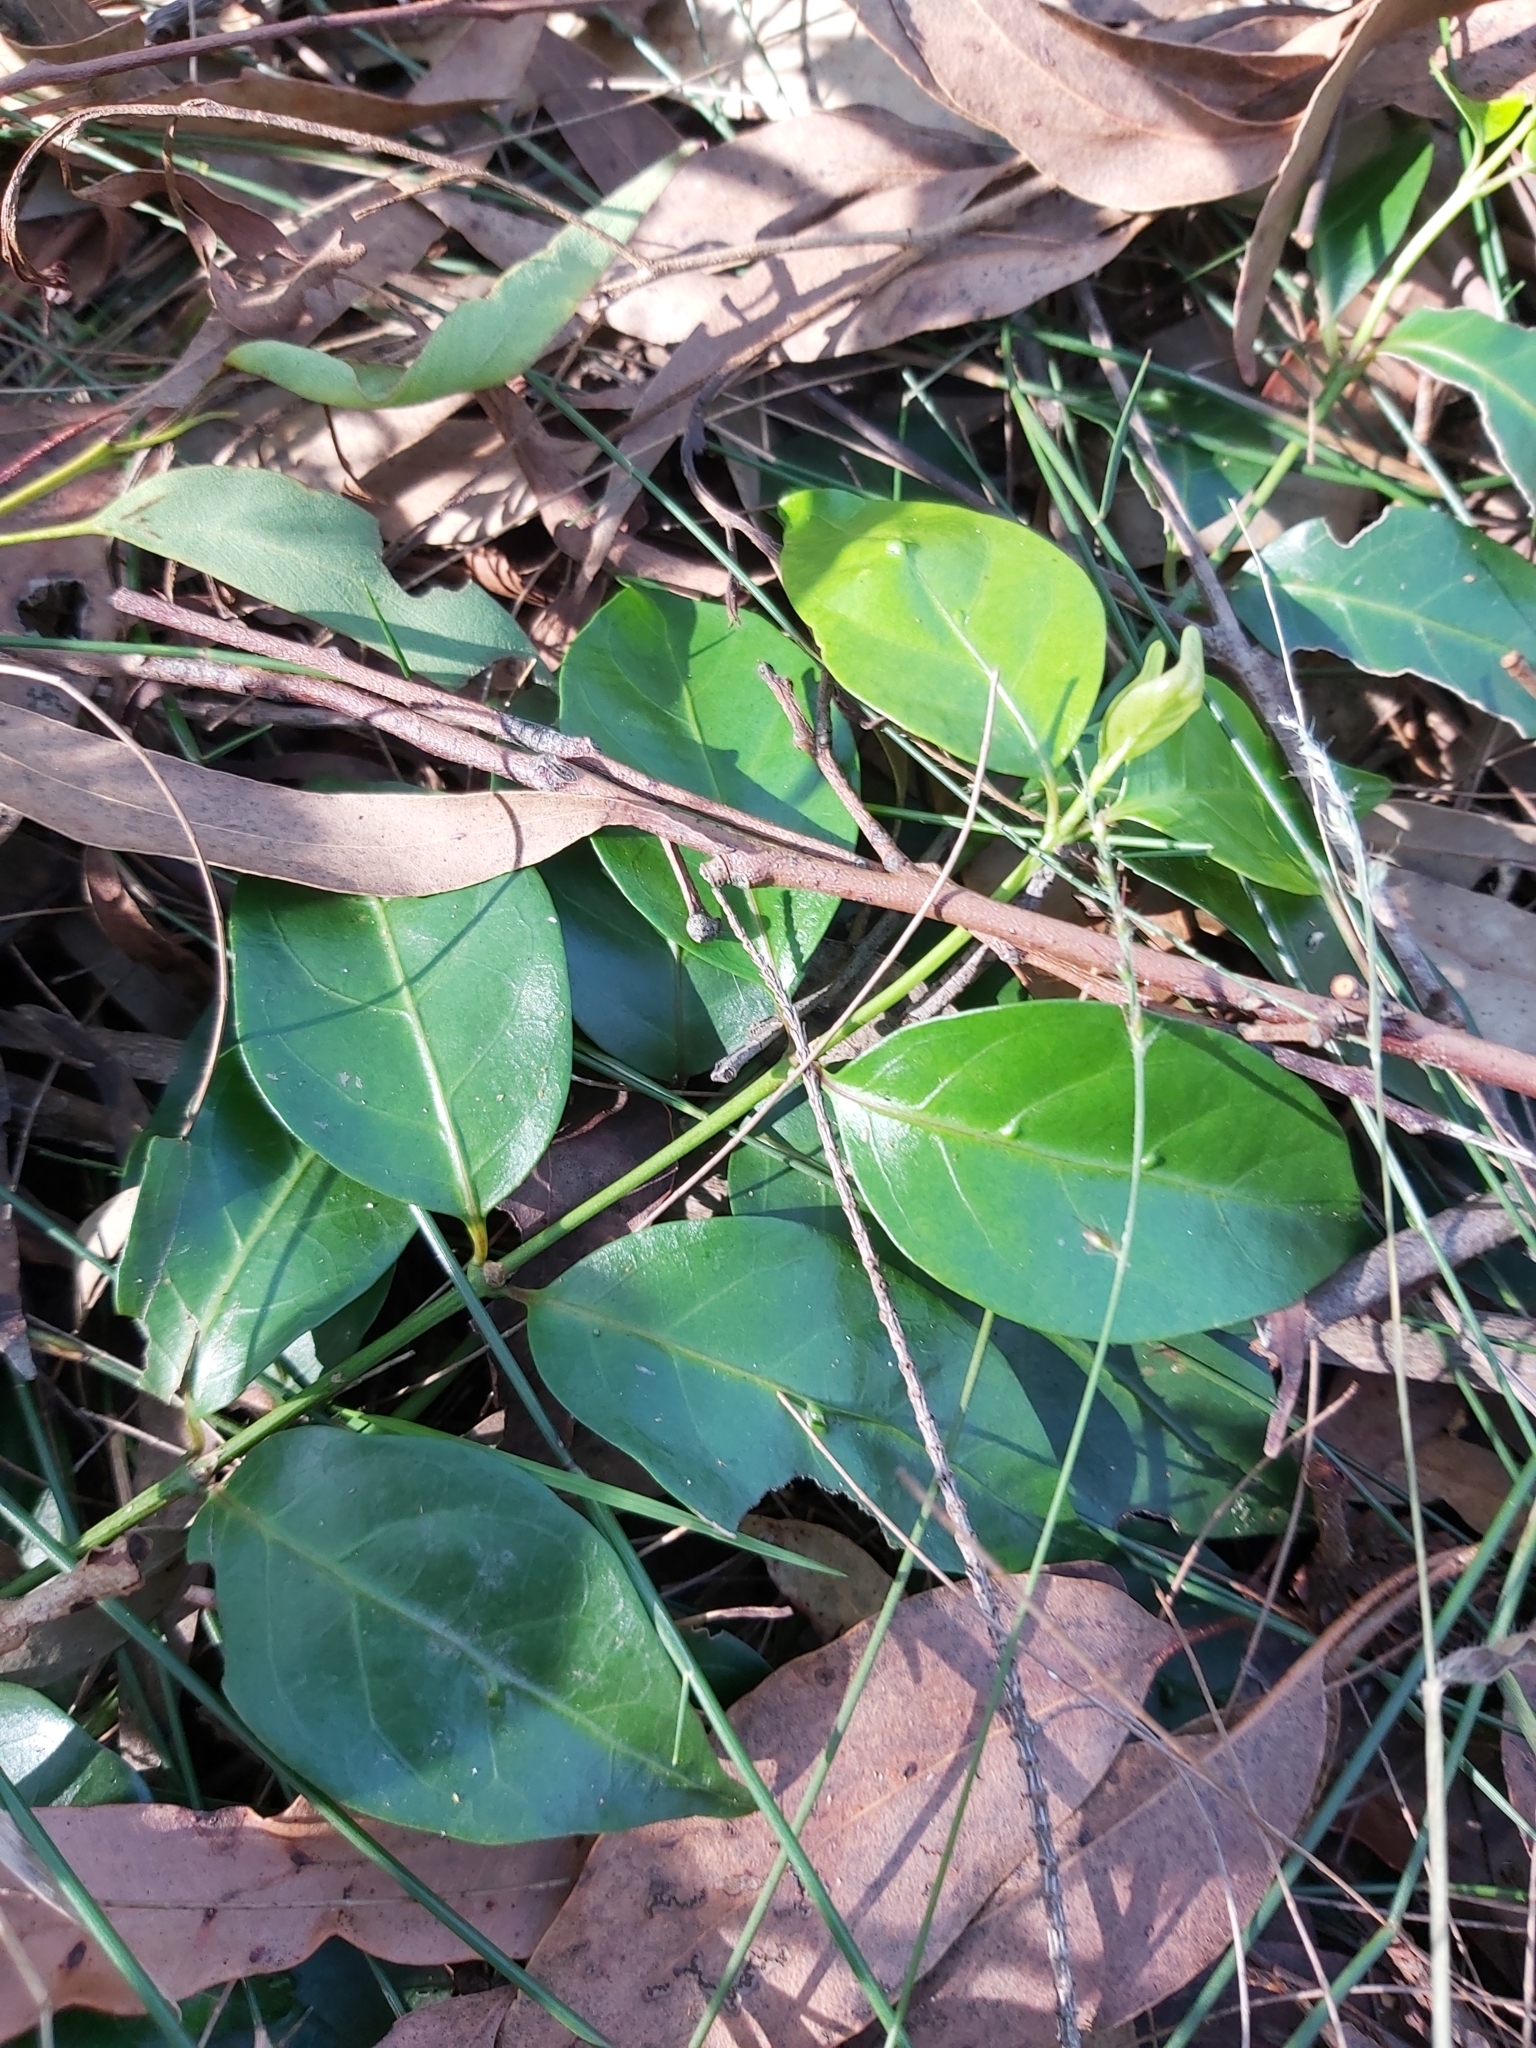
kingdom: Plantae
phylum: Tracheophyta
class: Magnoliopsida
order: Gentianales
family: Rubiaceae
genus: Gynochthodes
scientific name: Gynochthodes jasminoides
